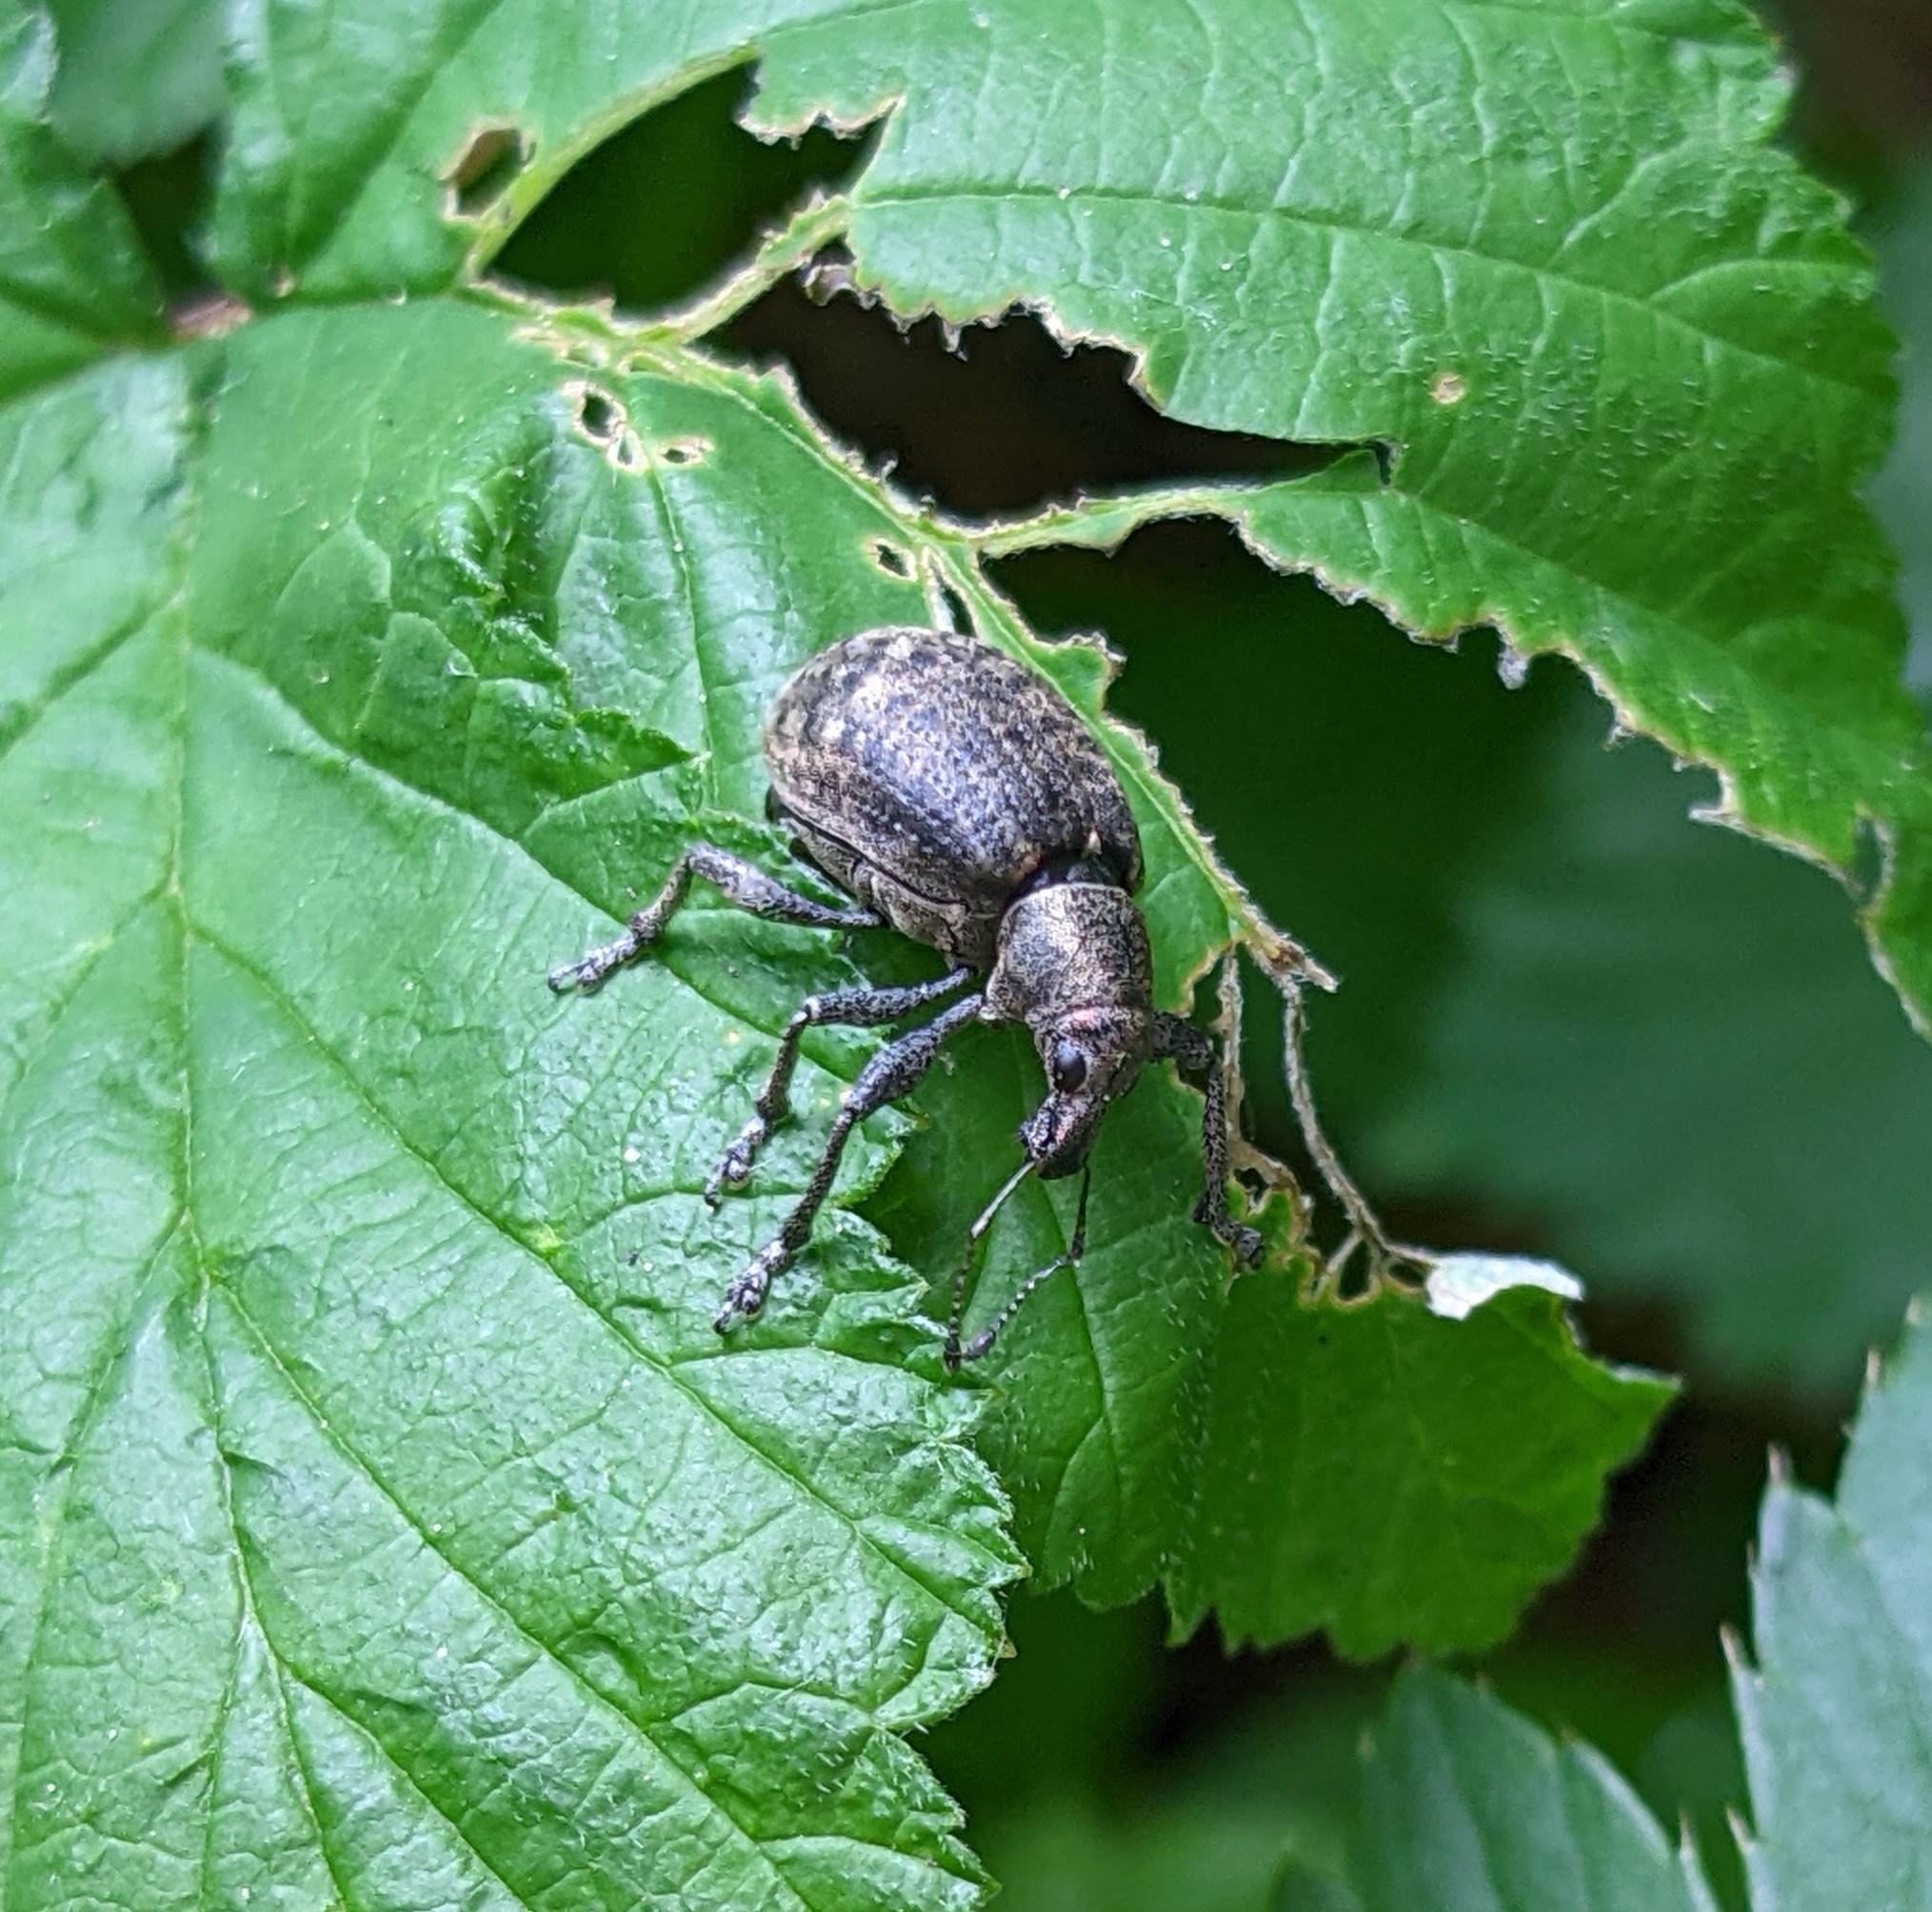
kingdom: Animalia
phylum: Arthropoda
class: Insecta
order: Coleoptera
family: Curculionidae
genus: Liophloeus
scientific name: Liophloeus tessulatus
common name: Weevil
